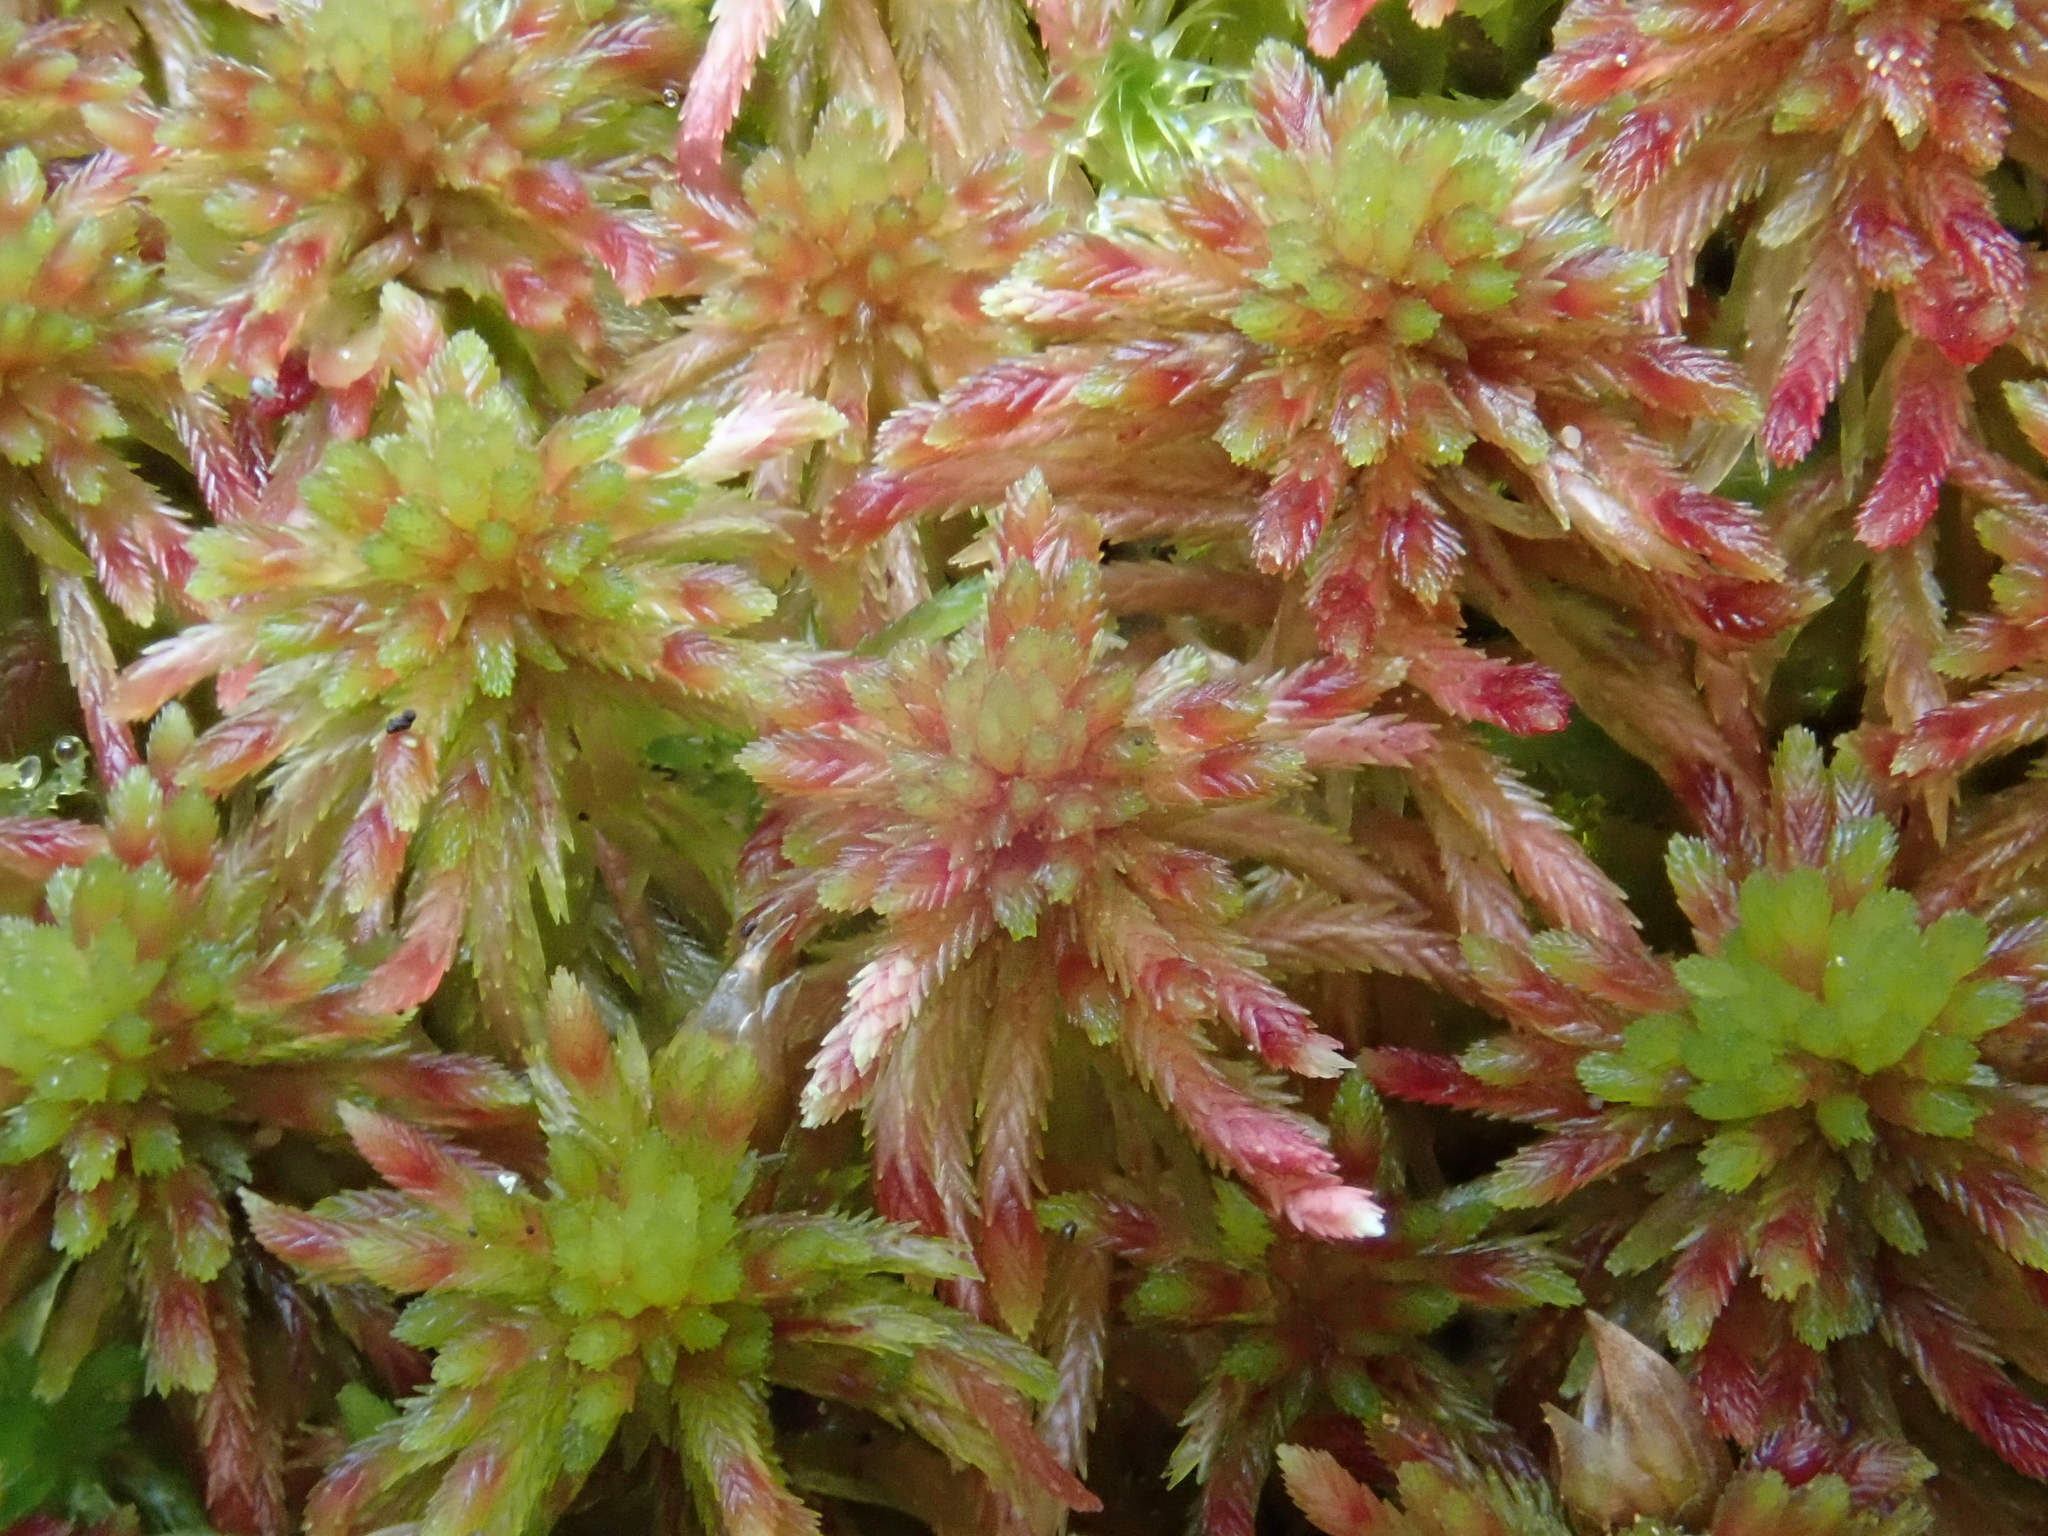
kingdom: Plantae
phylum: Bryophyta
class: Sphagnopsida
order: Sphagnales
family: Sphagnaceae
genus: Sphagnum
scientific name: Sphagnum quinquefarium
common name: Five-ranked peat moss
